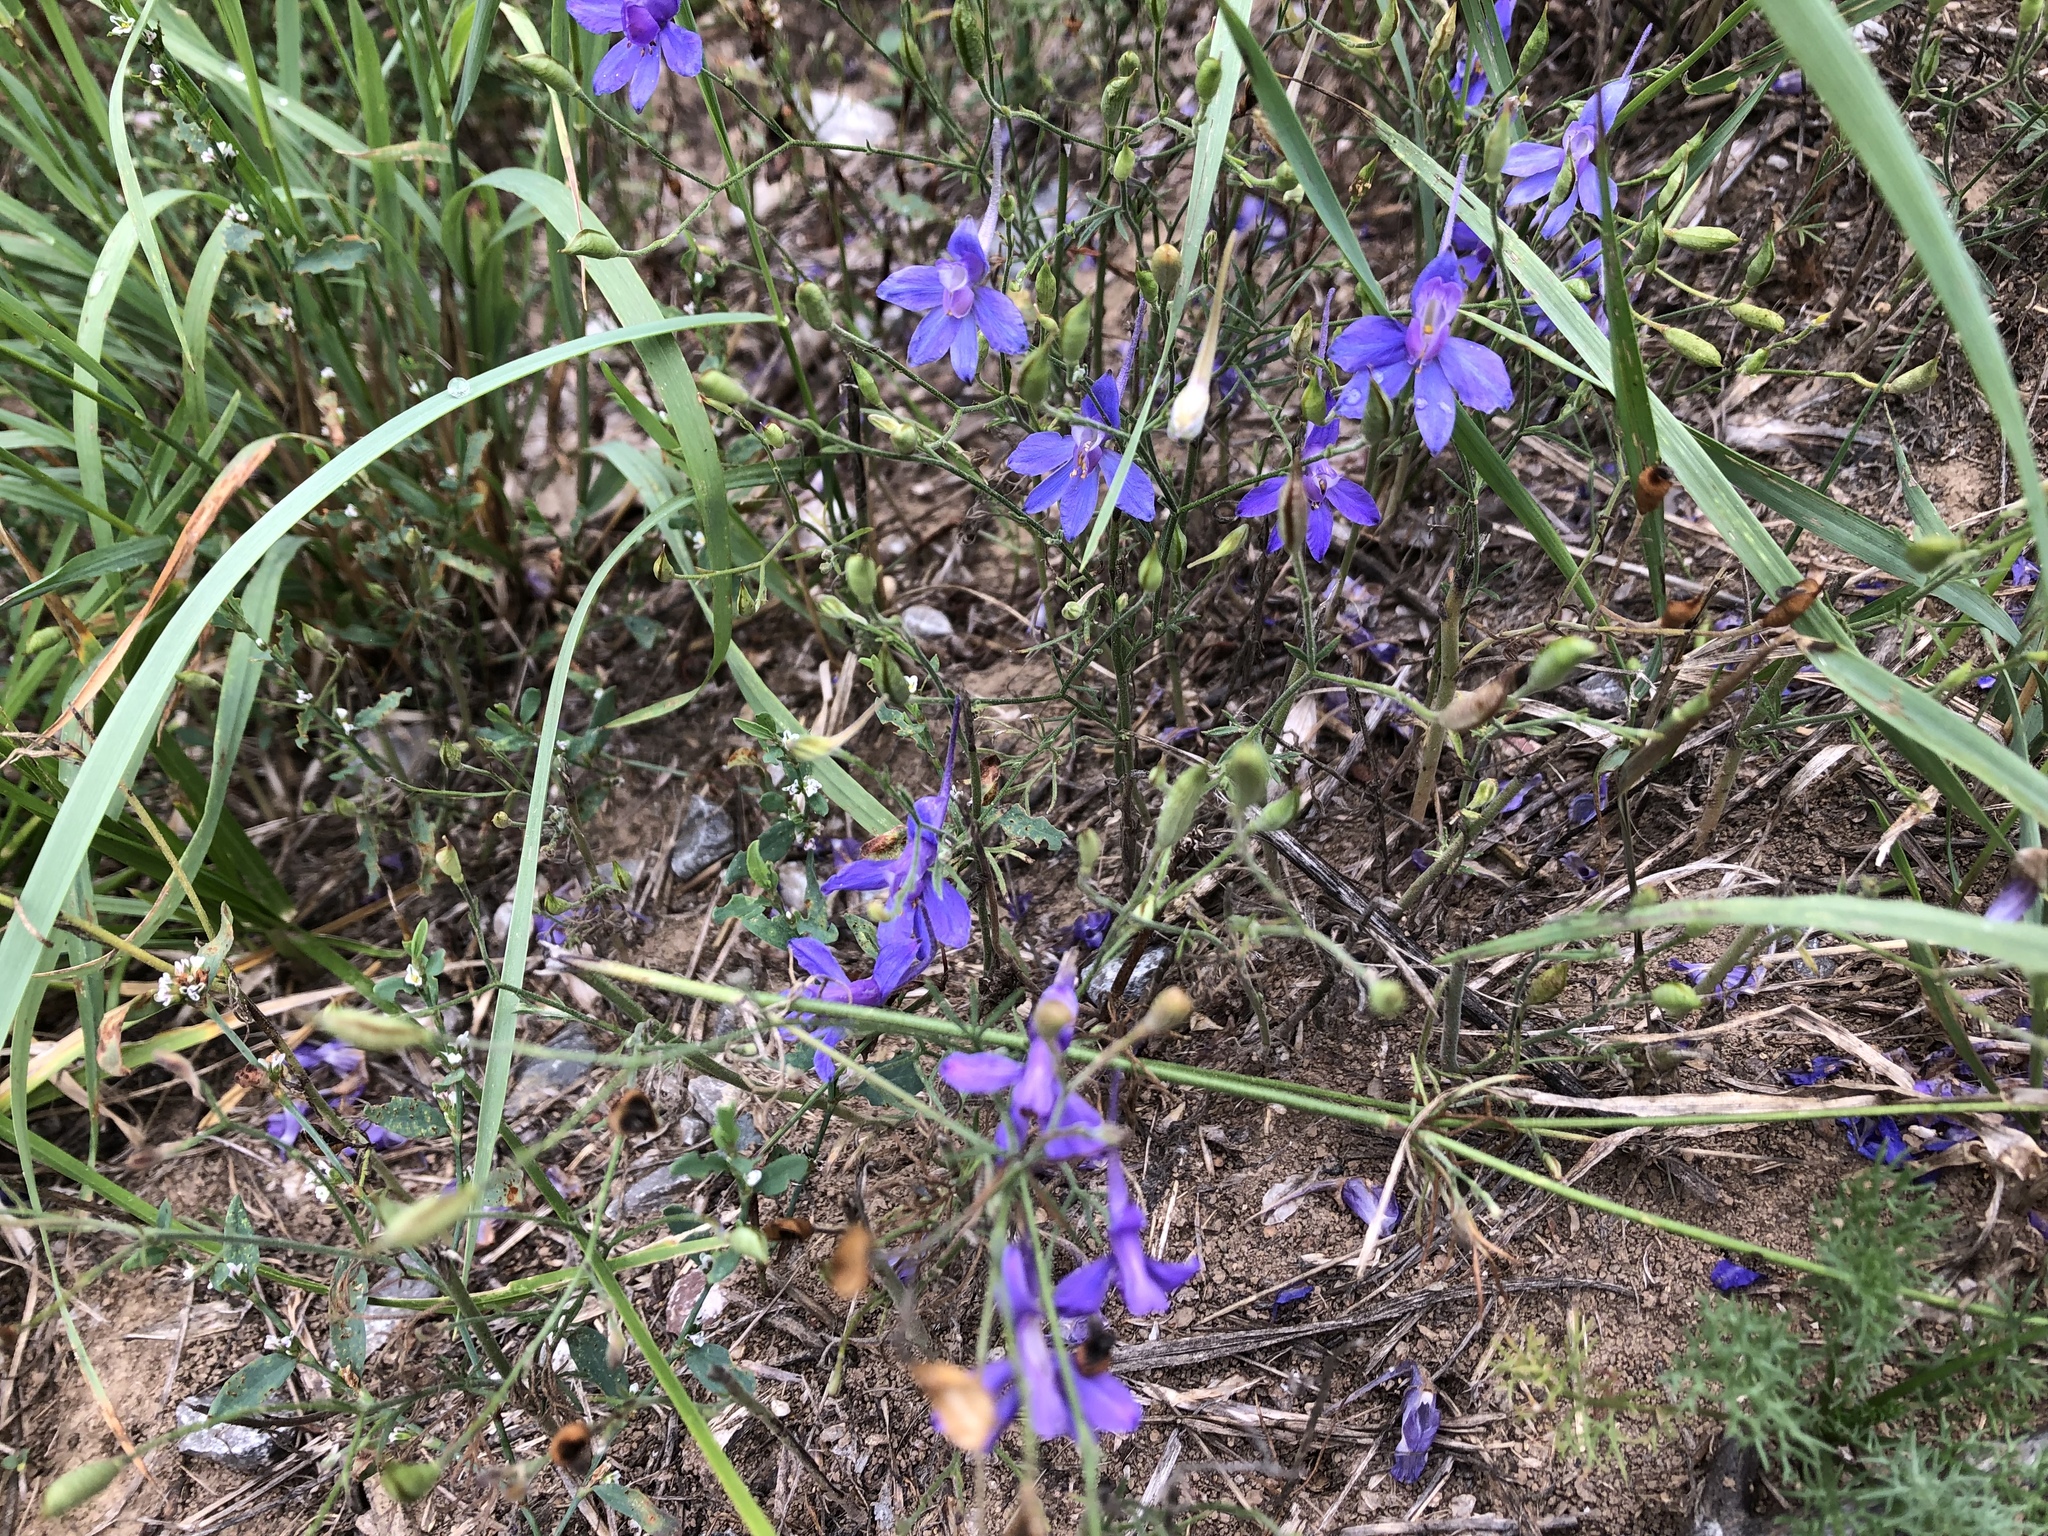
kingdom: Plantae
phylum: Tracheophyta
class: Magnoliopsida
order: Ranunculales
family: Ranunculaceae
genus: Delphinium
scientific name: Delphinium consolida
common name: Branching larkspur
